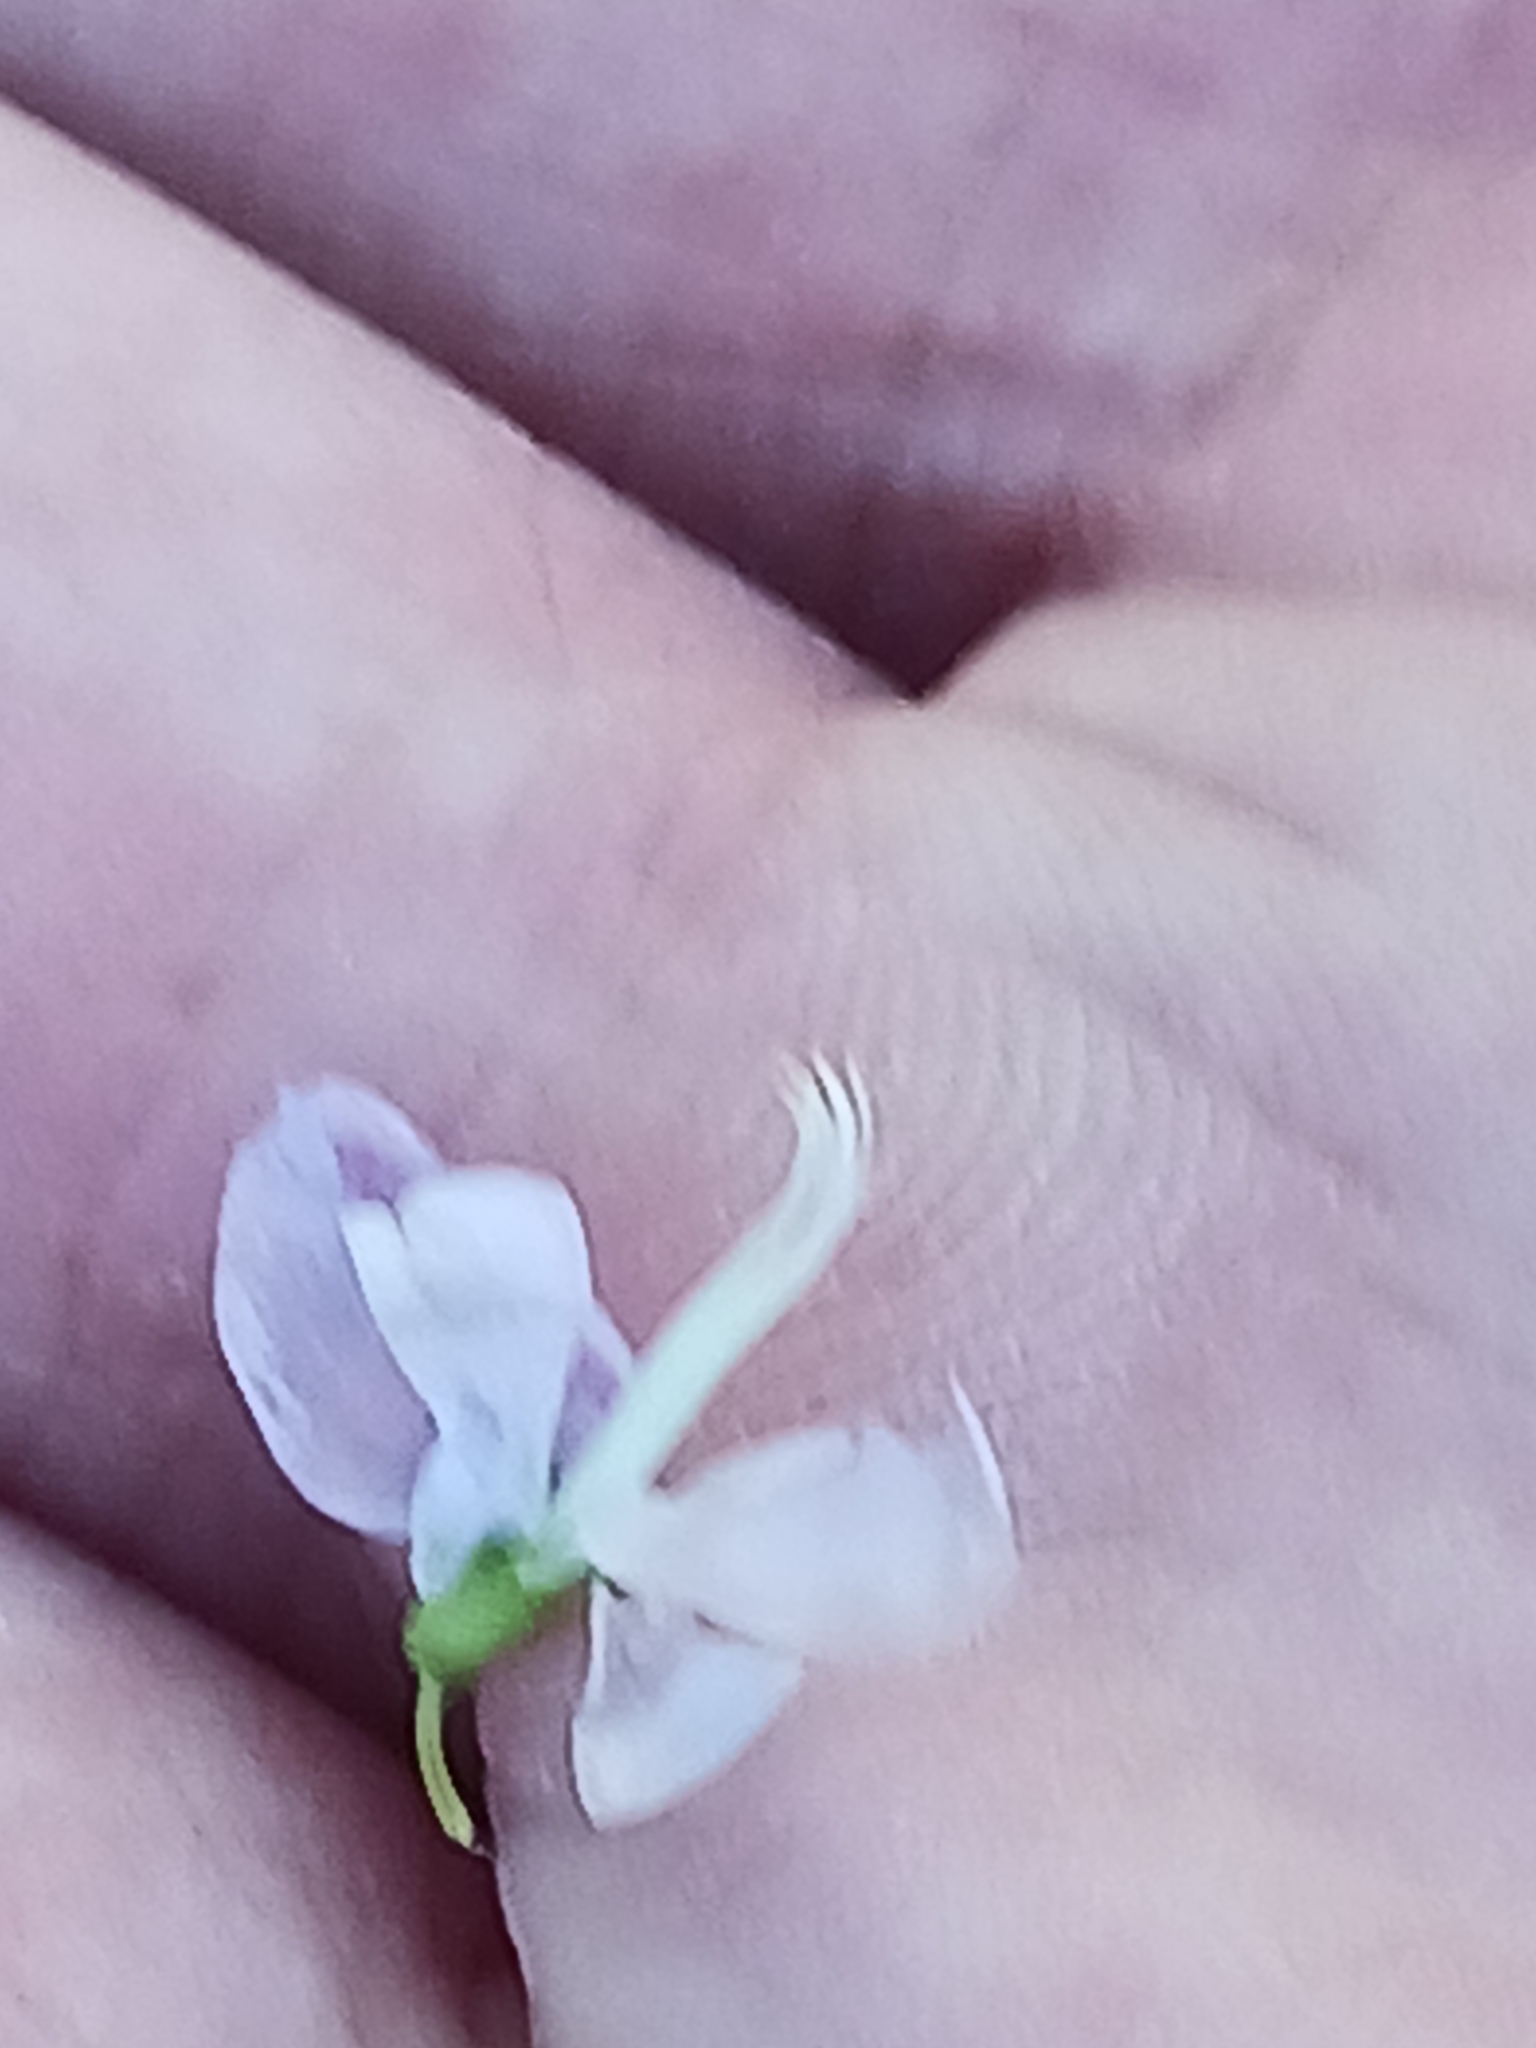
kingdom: Plantae
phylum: Tracheophyta
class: Magnoliopsida
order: Fabales
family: Fabaceae
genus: Galega
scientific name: Galega officinalis
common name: Goat's-rue
